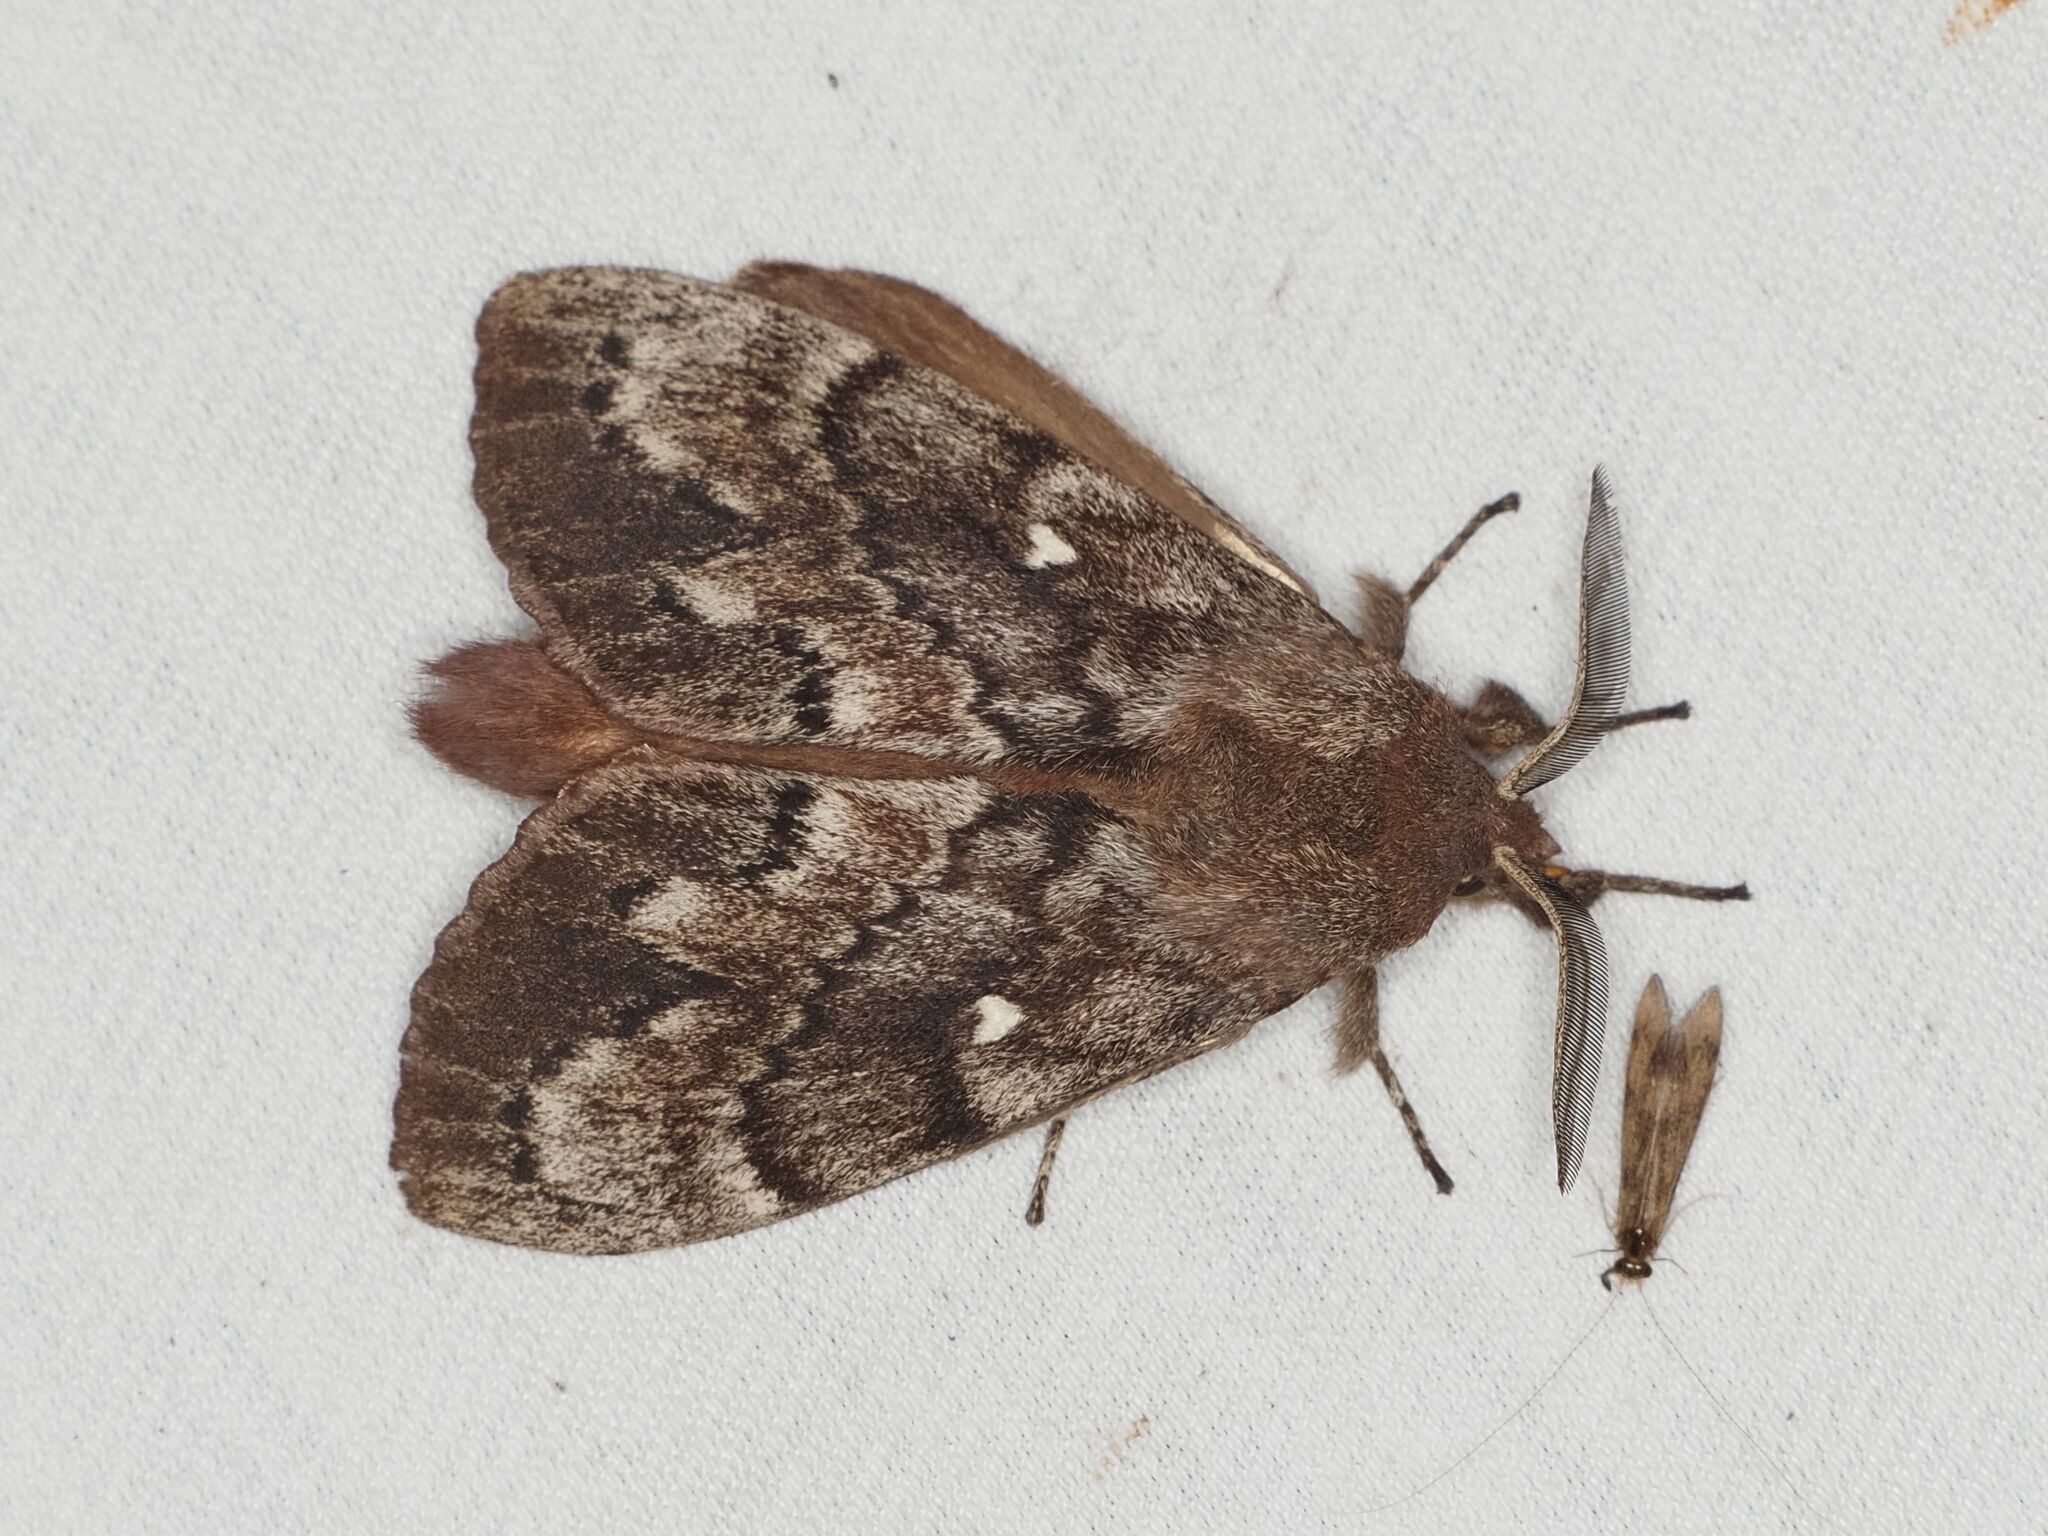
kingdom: Animalia
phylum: Arthropoda
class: Insecta
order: Lepidoptera
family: Lasiocampidae
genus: Dendrolimus
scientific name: Dendrolimus pini
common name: Pine-tree lappet
